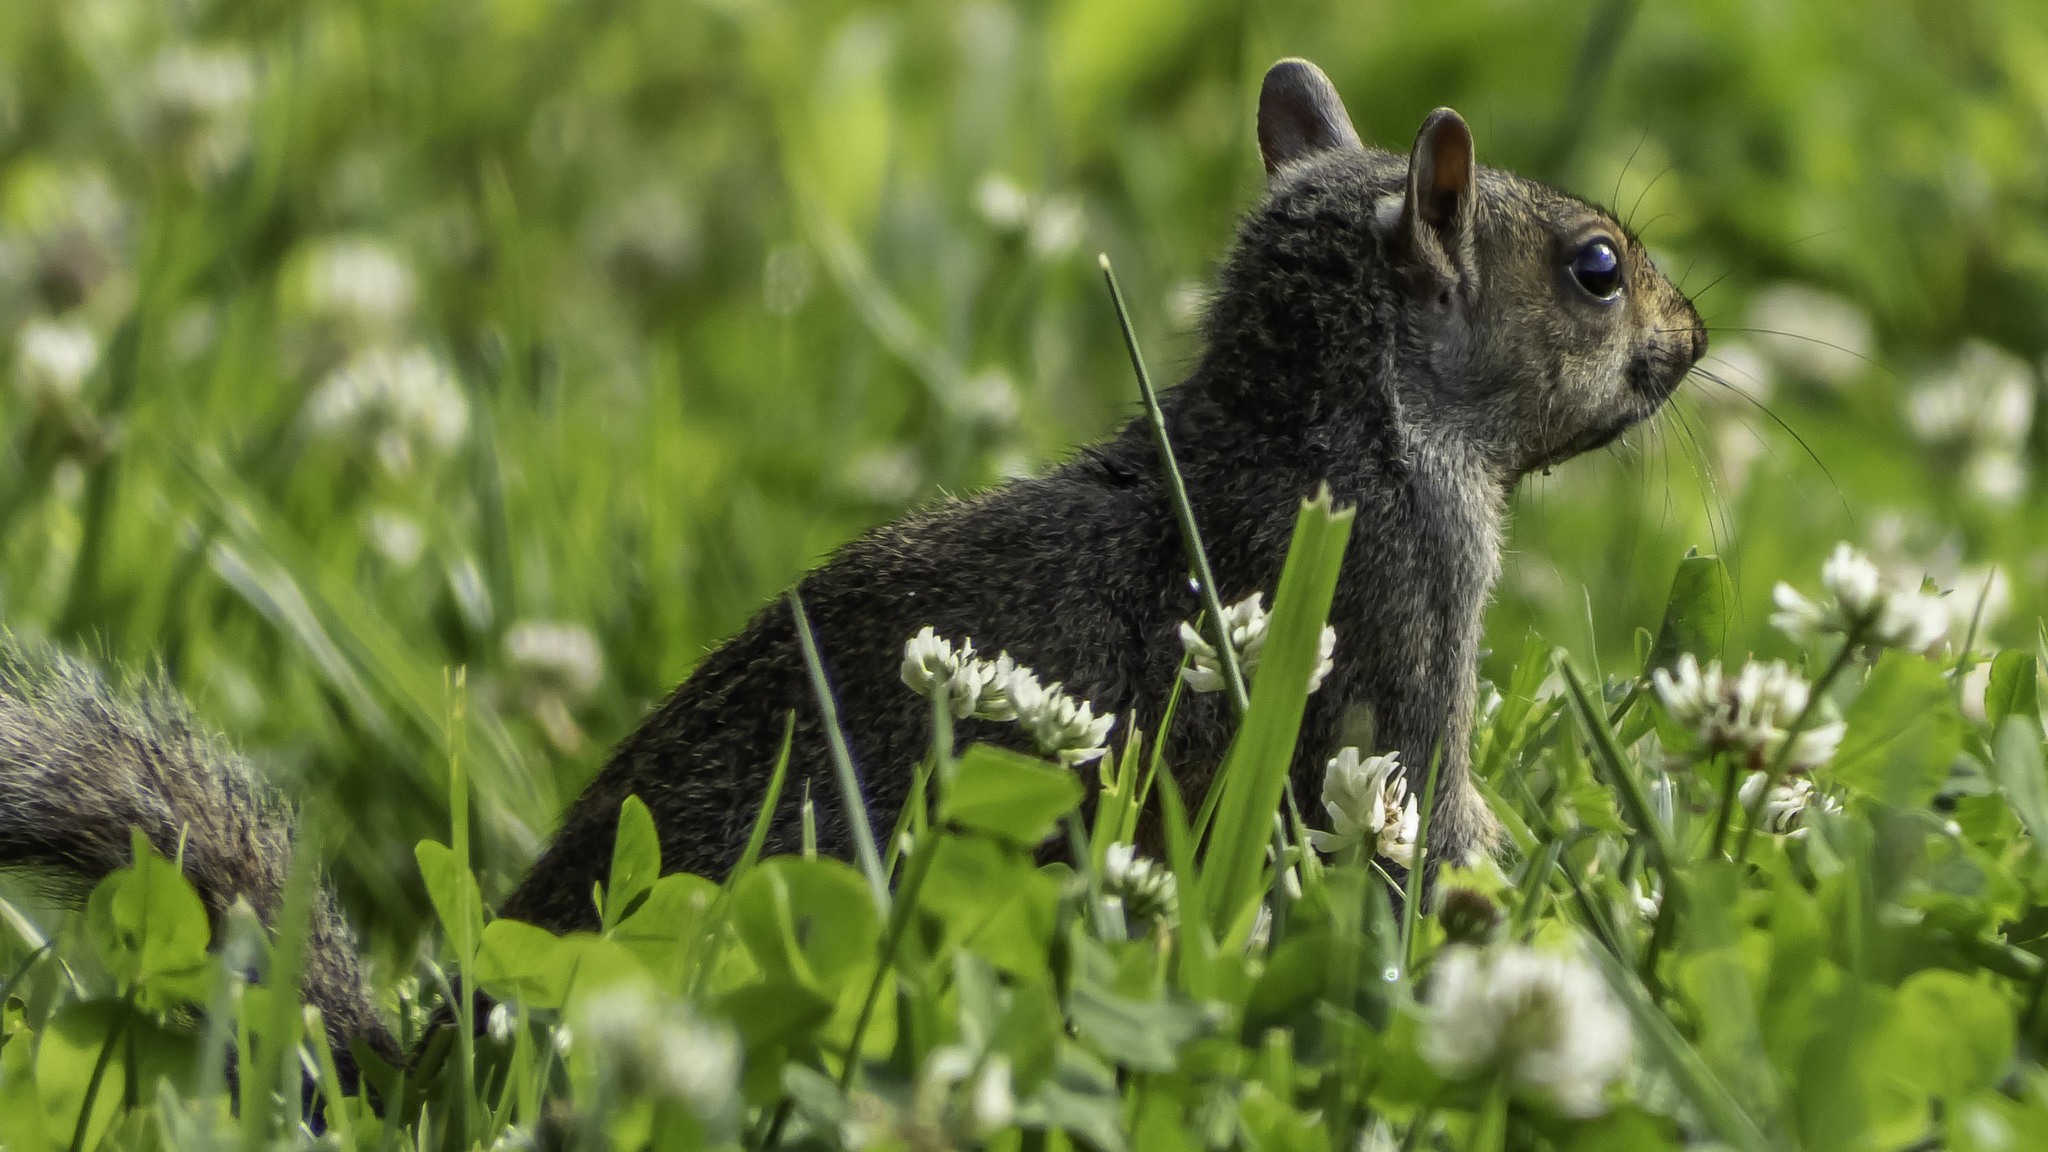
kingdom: Animalia
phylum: Chordata
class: Mammalia
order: Rodentia
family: Sciuridae
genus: Sciurus
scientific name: Sciurus carolinensis
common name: Eastern gray squirrel
